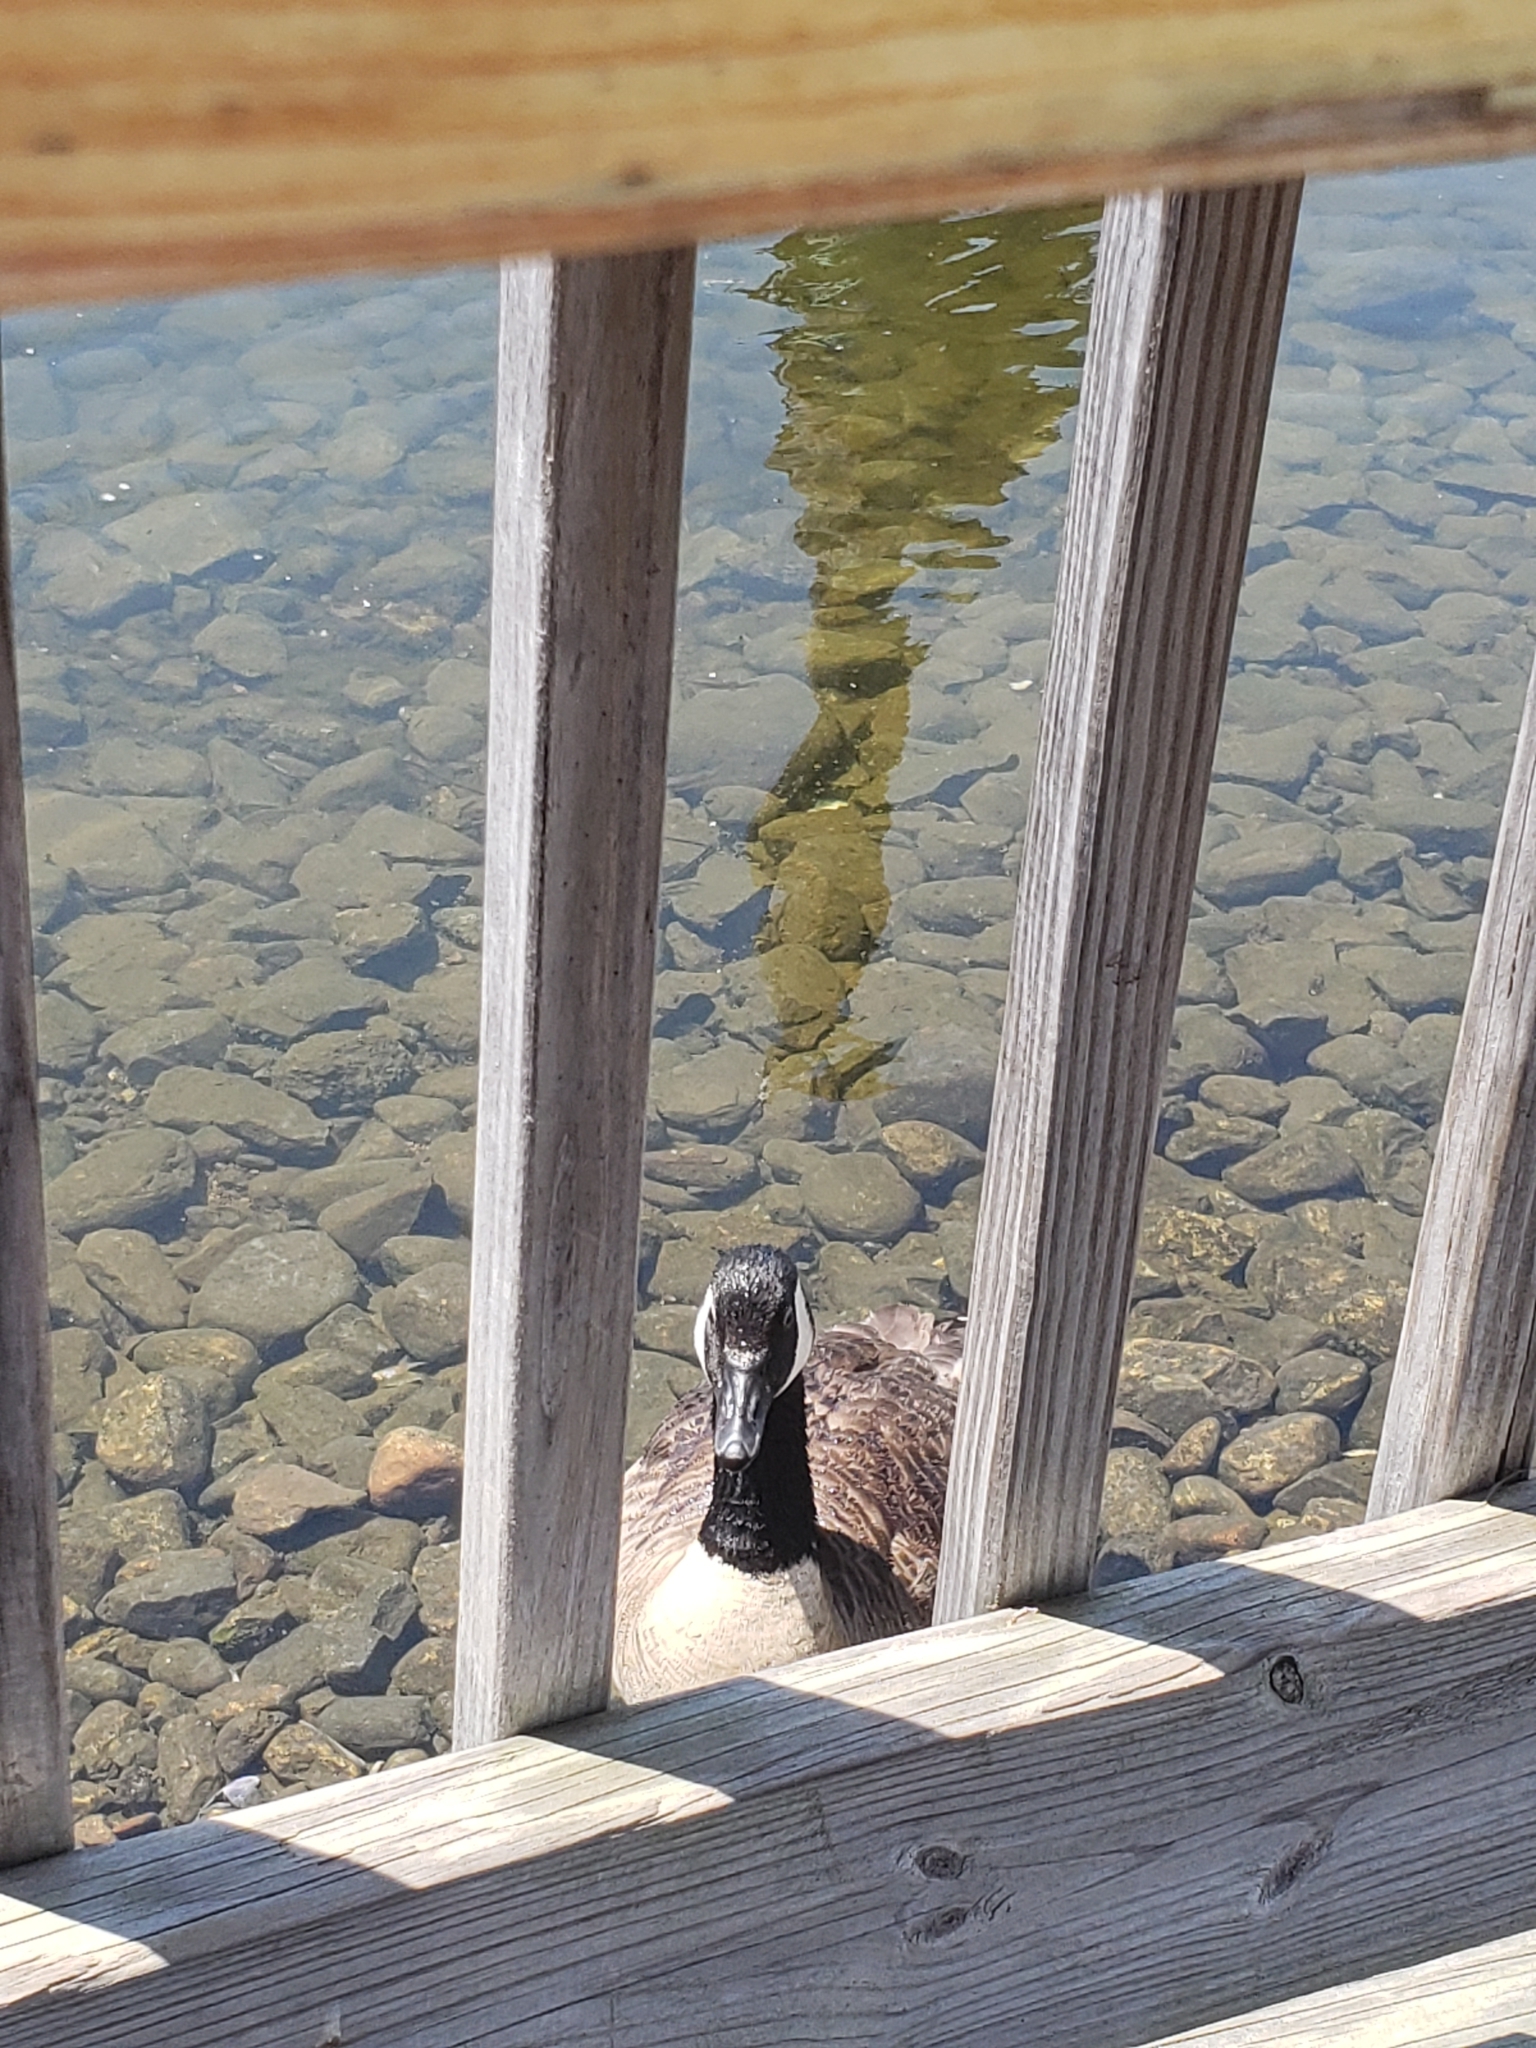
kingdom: Animalia
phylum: Chordata
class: Aves
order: Anseriformes
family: Anatidae
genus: Branta
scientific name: Branta canadensis
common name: Canada goose
